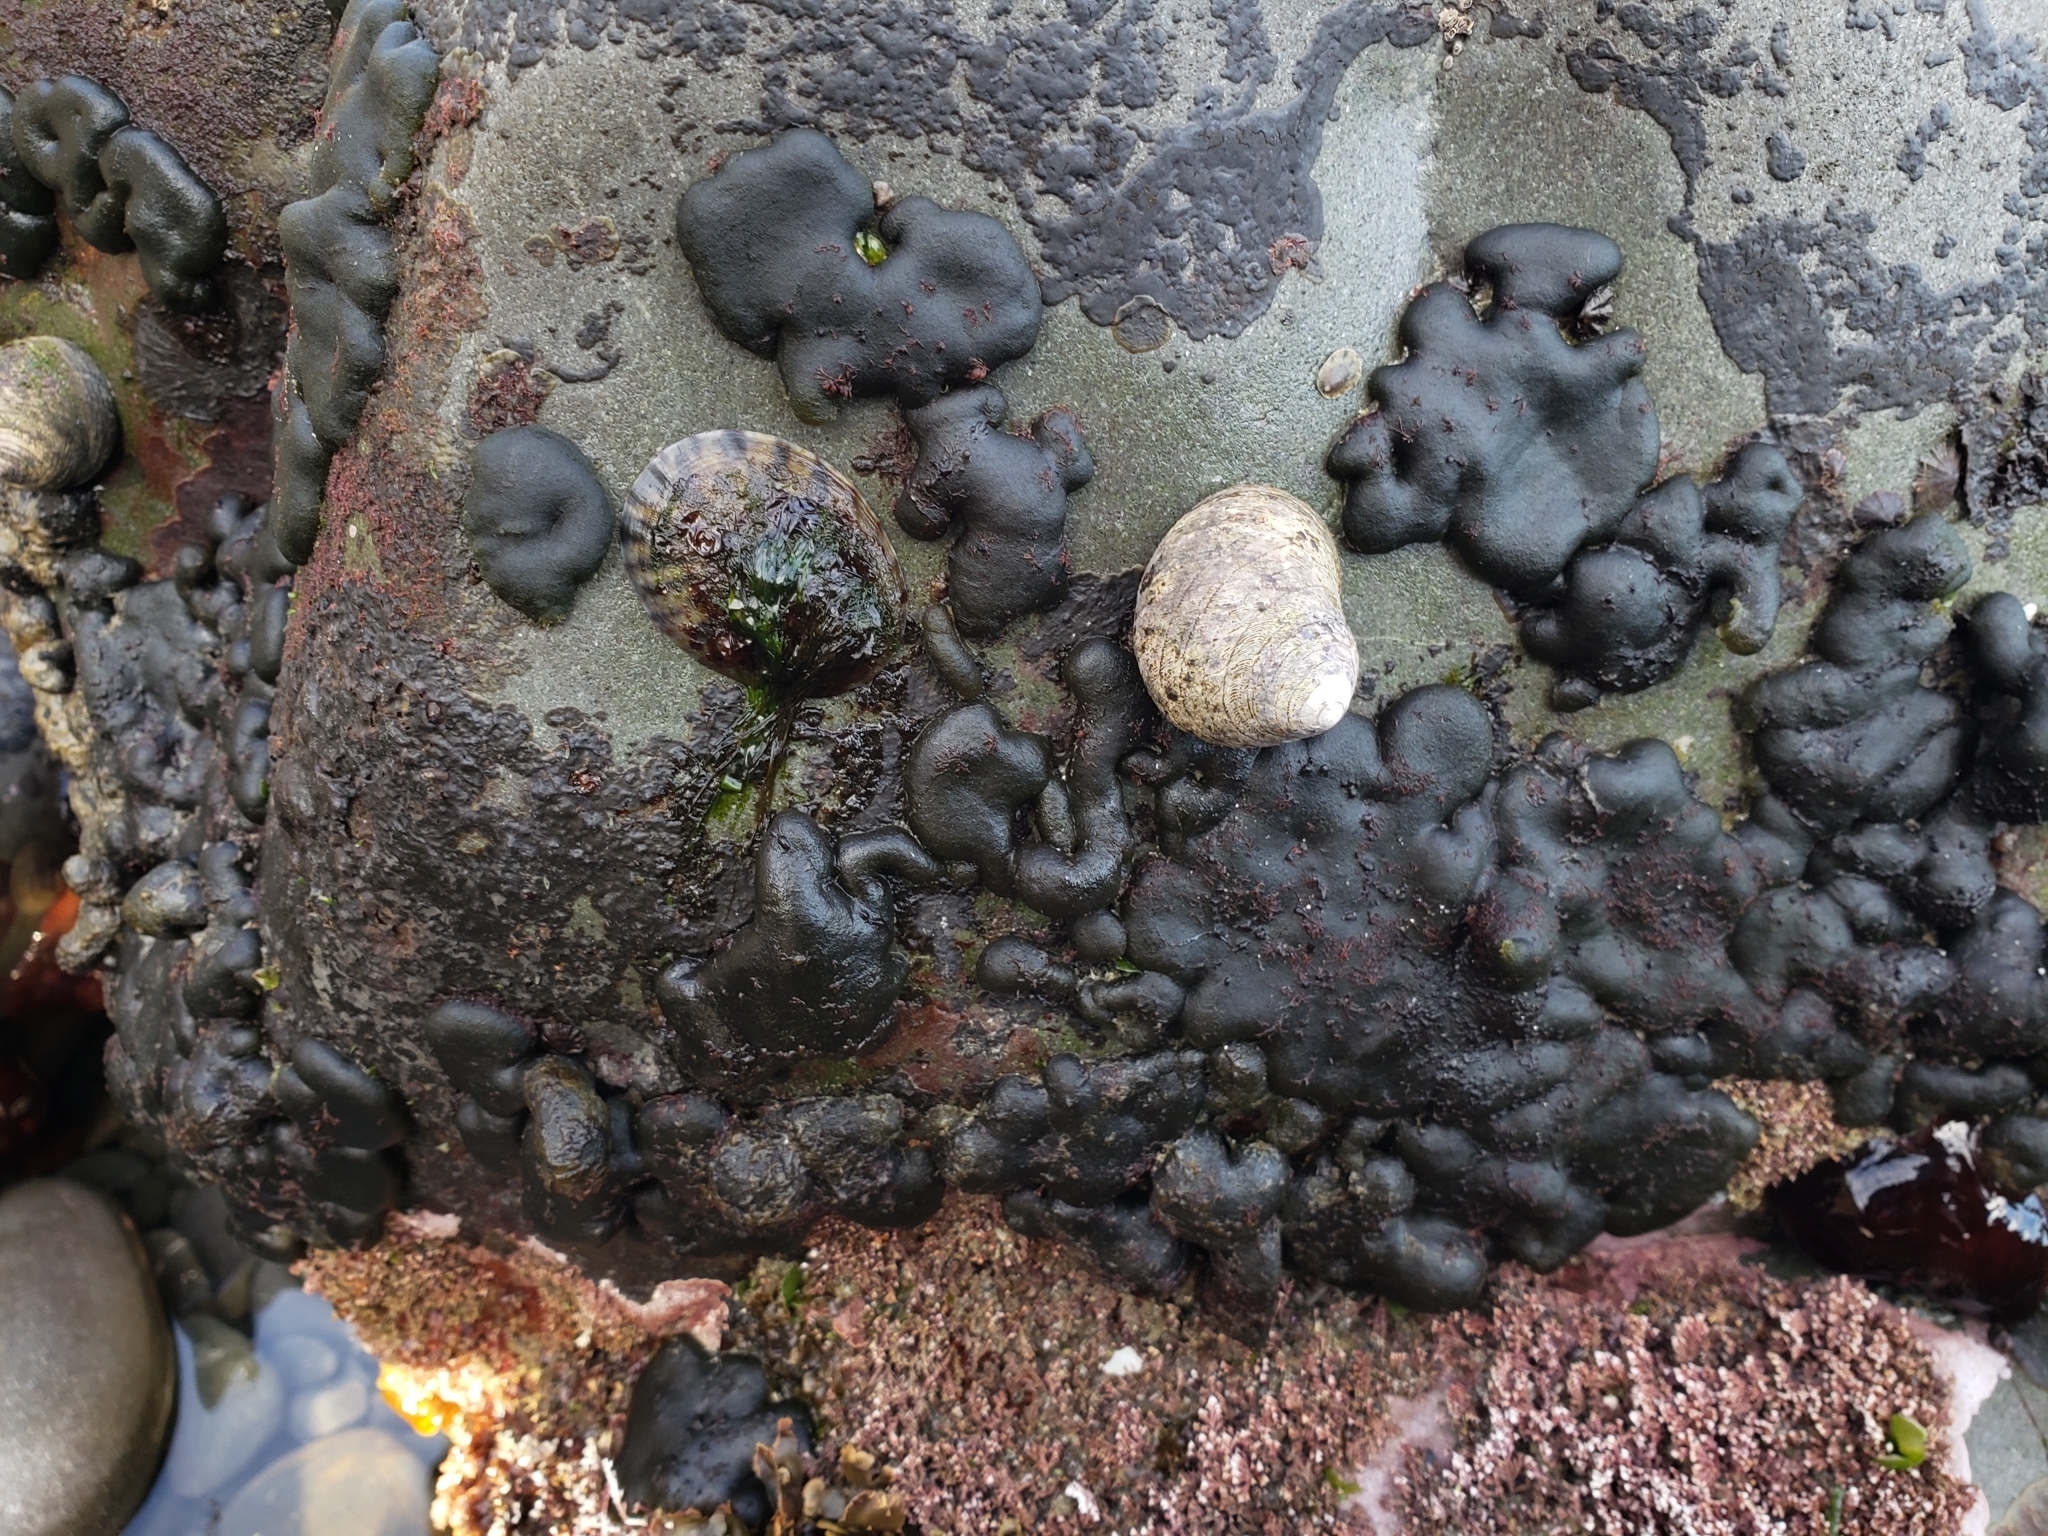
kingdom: Plantae
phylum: Chlorophyta
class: Ulvophyceae
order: Bryopsidales
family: Codiaceae
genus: Codium
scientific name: Codium convolutum
